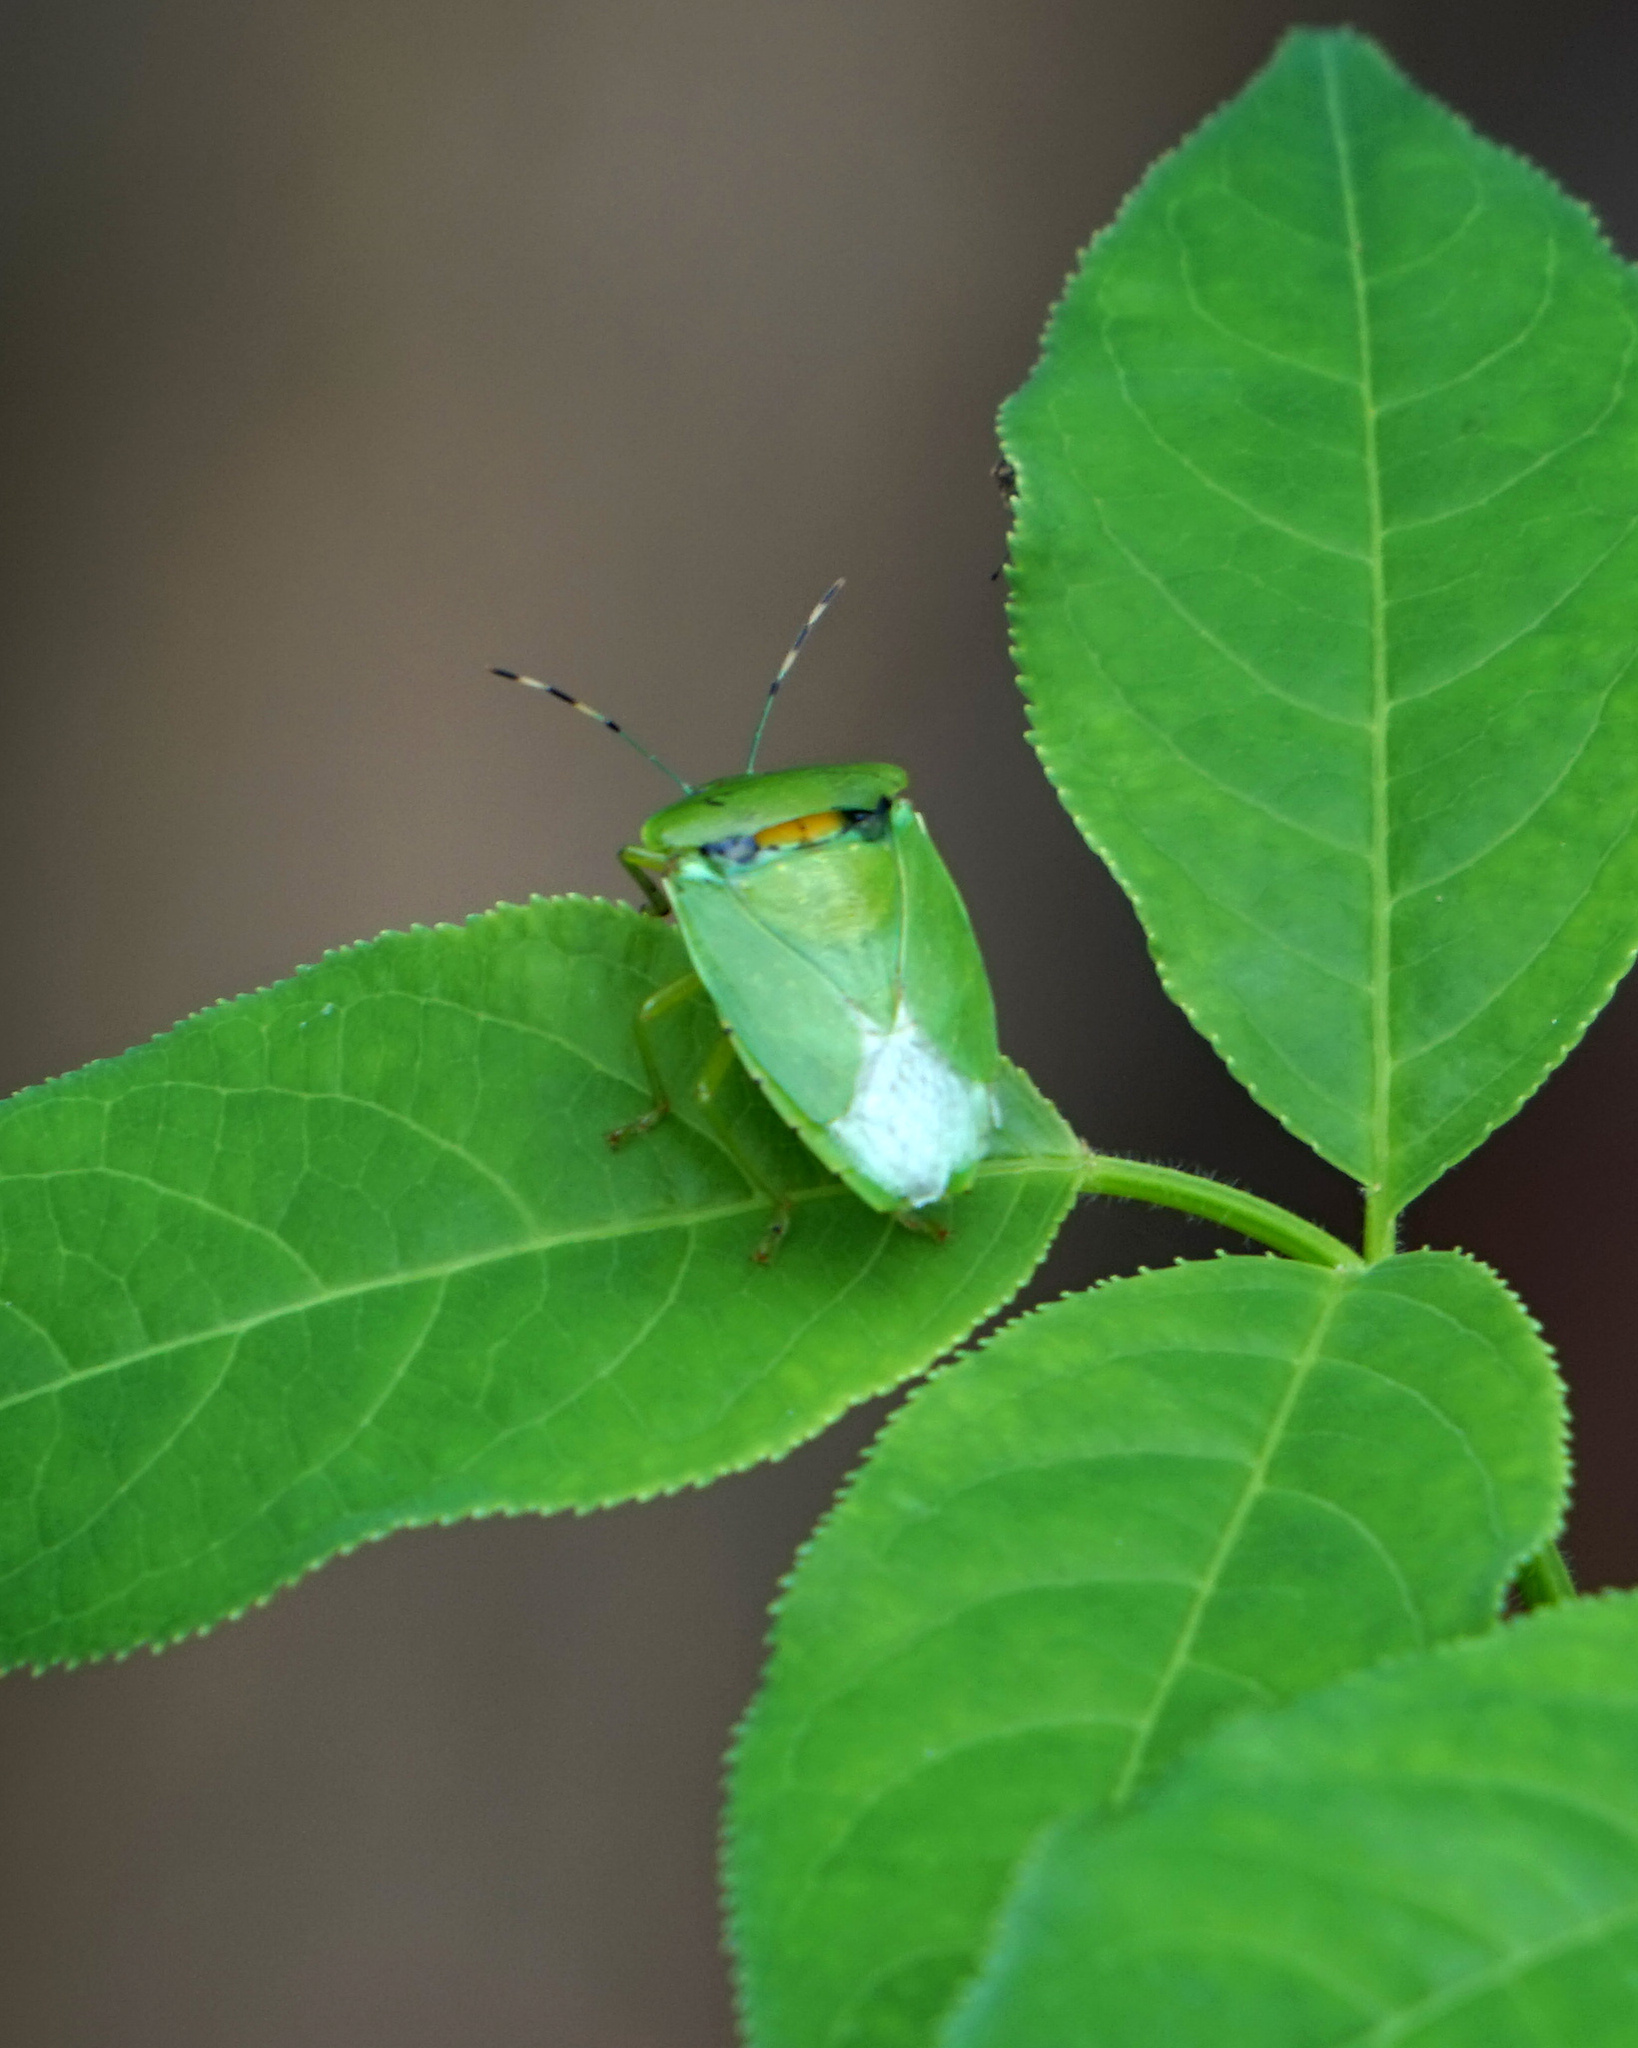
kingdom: Animalia
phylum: Arthropoda
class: Insecta
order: Hemiptera
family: Pentatomidae
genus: Chinavia
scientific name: Chinavia hilaris
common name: Green stink bug
